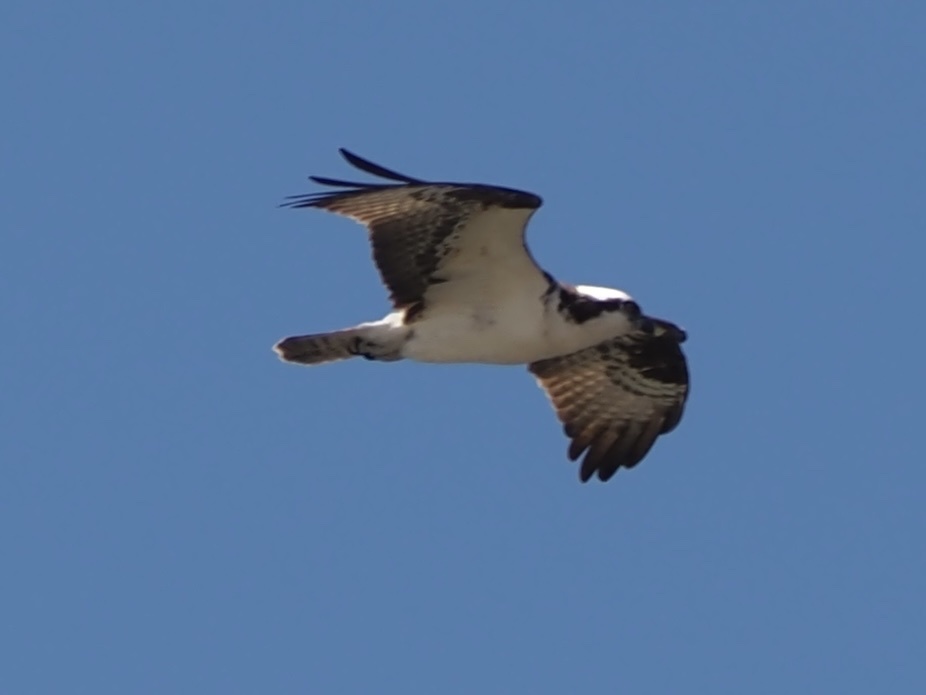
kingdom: Animalia
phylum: Chordata
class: Aves
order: Accipitriformes
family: Pandionidae
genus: Pandion
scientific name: Pandion haliaetus
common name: Osprey
